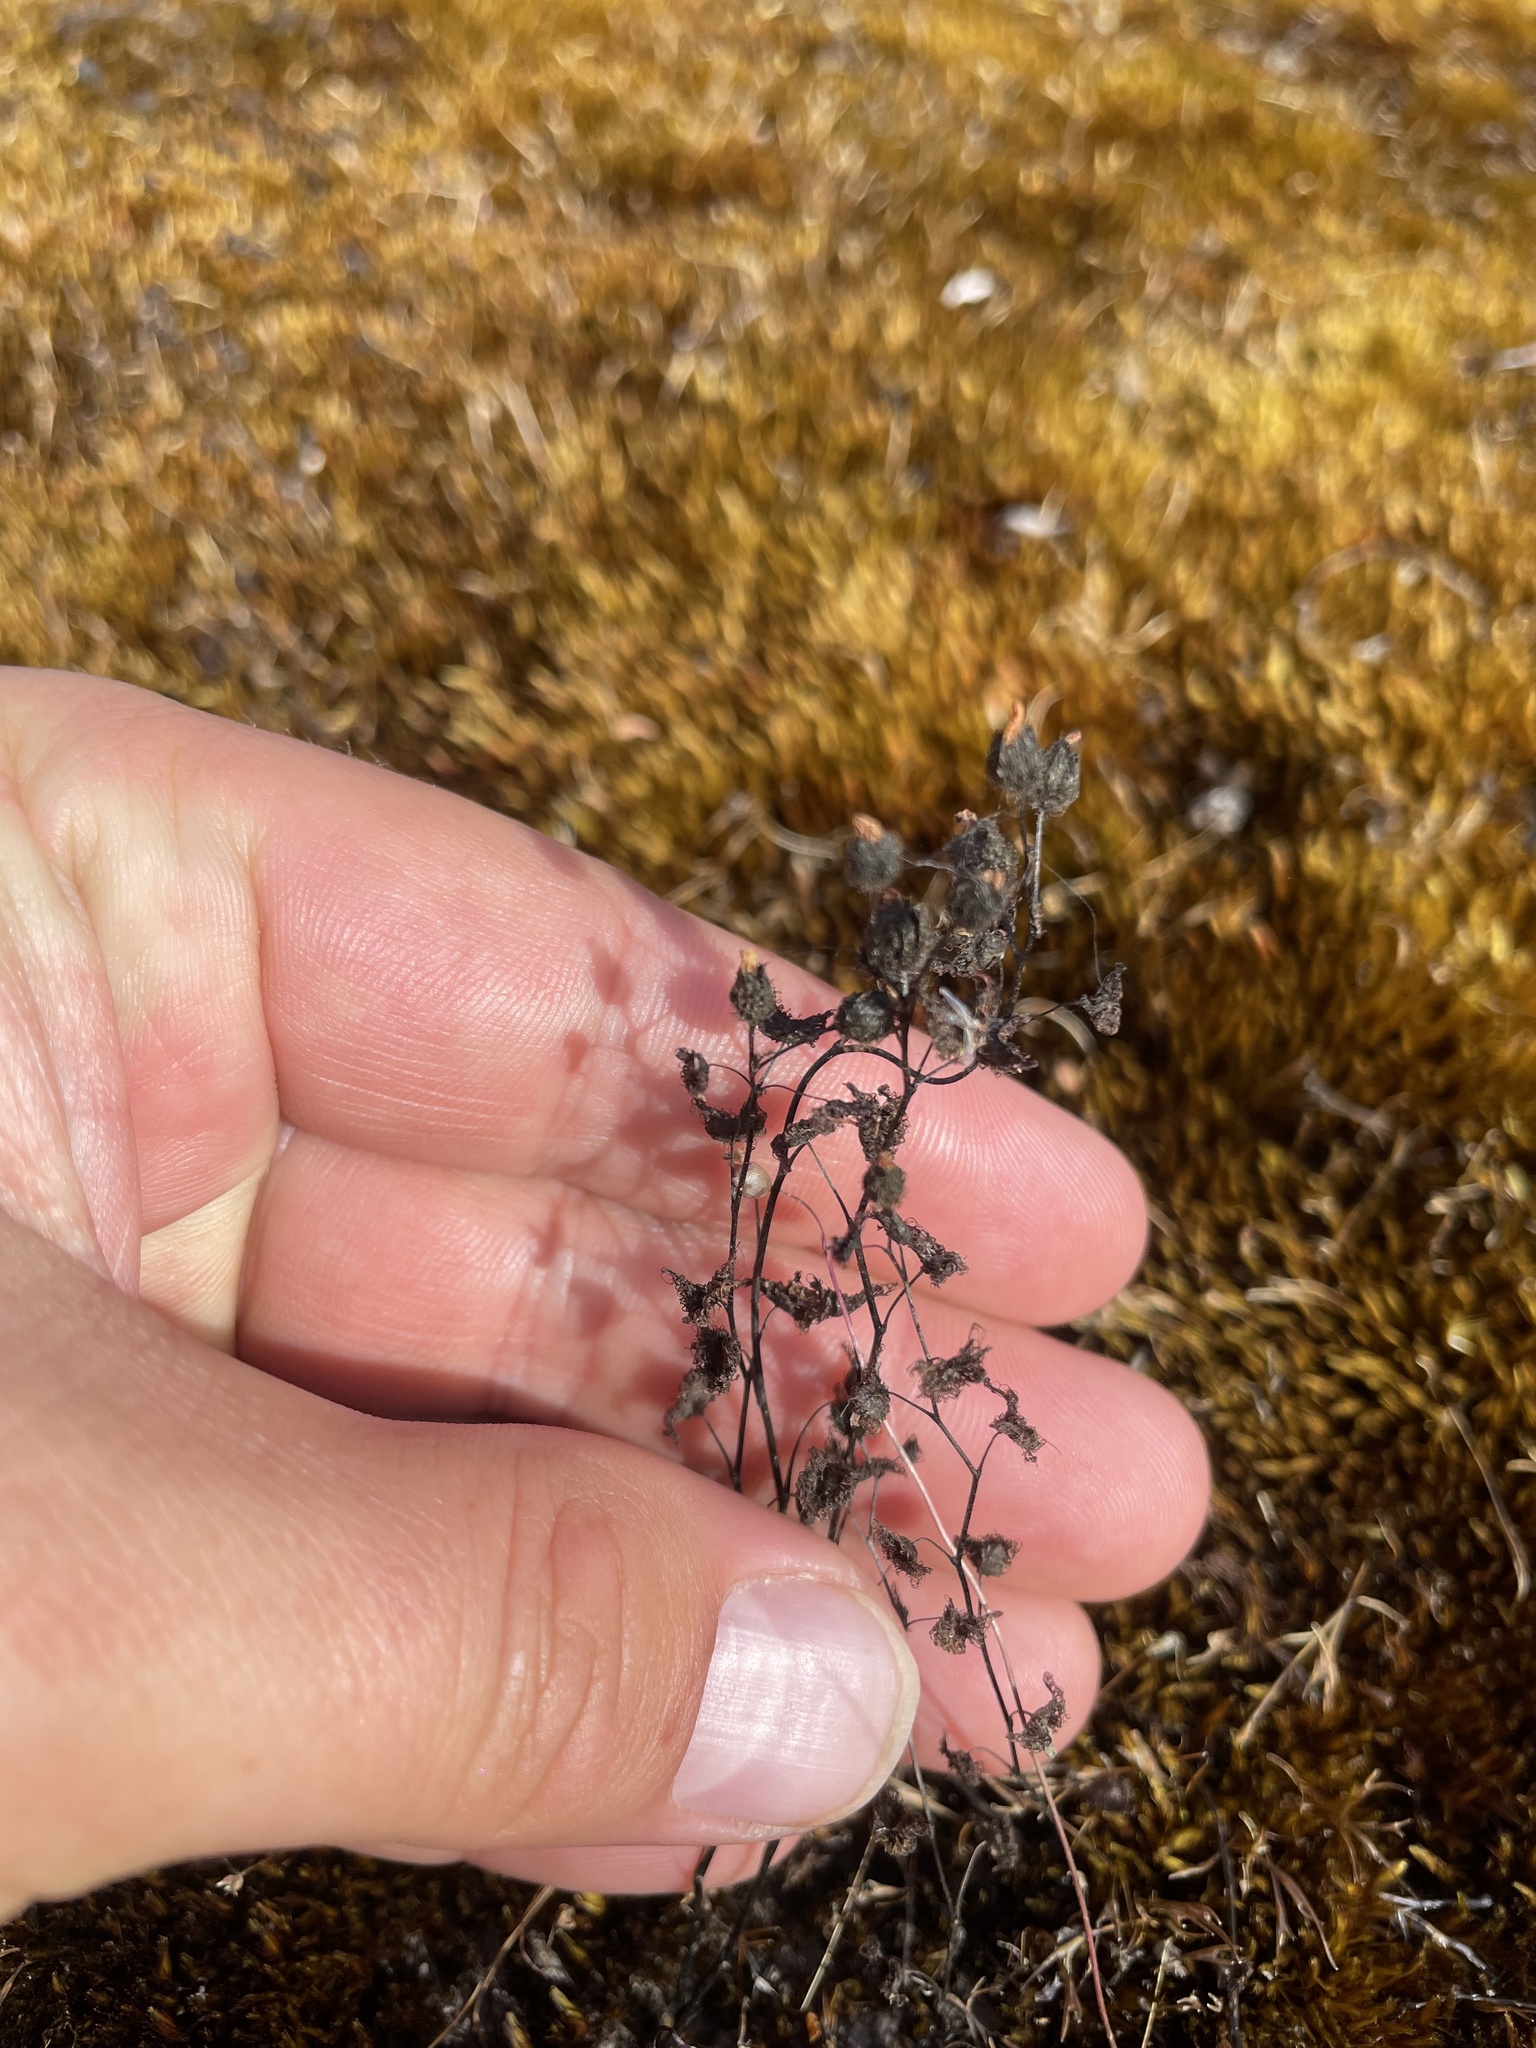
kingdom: Plantae
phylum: Tracheophyta
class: Magnoliopsida
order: Caryophyllales
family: Droseraceae
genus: Drosera
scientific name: Drosera gunniana
